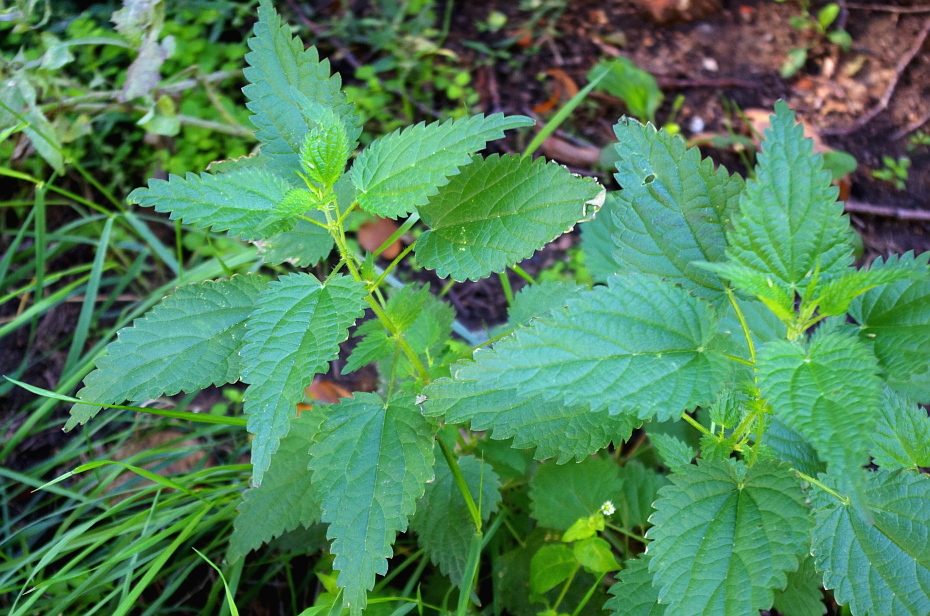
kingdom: Plantae
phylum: Tracheophyta
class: Magnoliopsida
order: Rosales
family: Urticaceae
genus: Urtica
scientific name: Urtica dioica
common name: Common nettle
